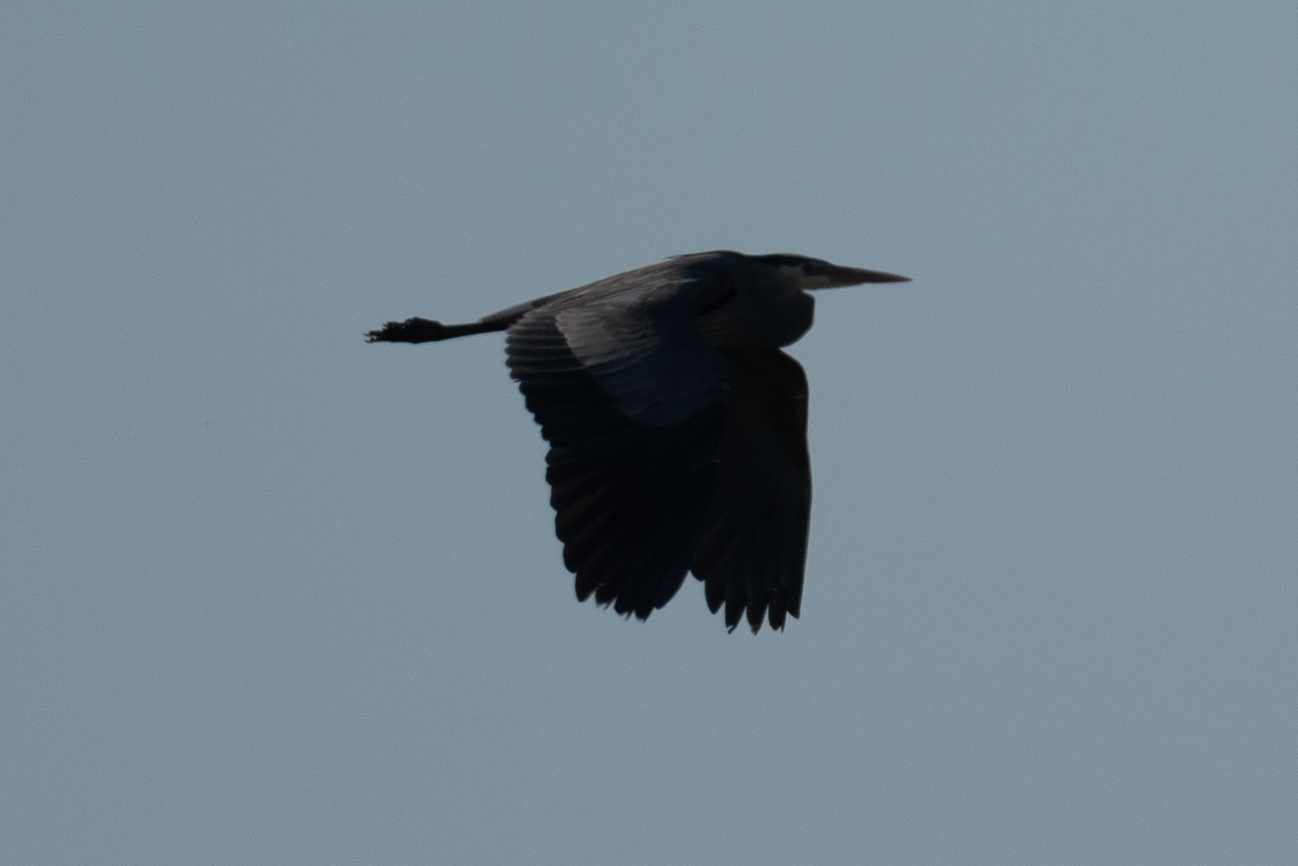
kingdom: Animalia
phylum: Chordata
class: Aves
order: Pelecaniformes
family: Ardeidae
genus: Ardea
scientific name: Ardea herodias
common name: Great blue heron
